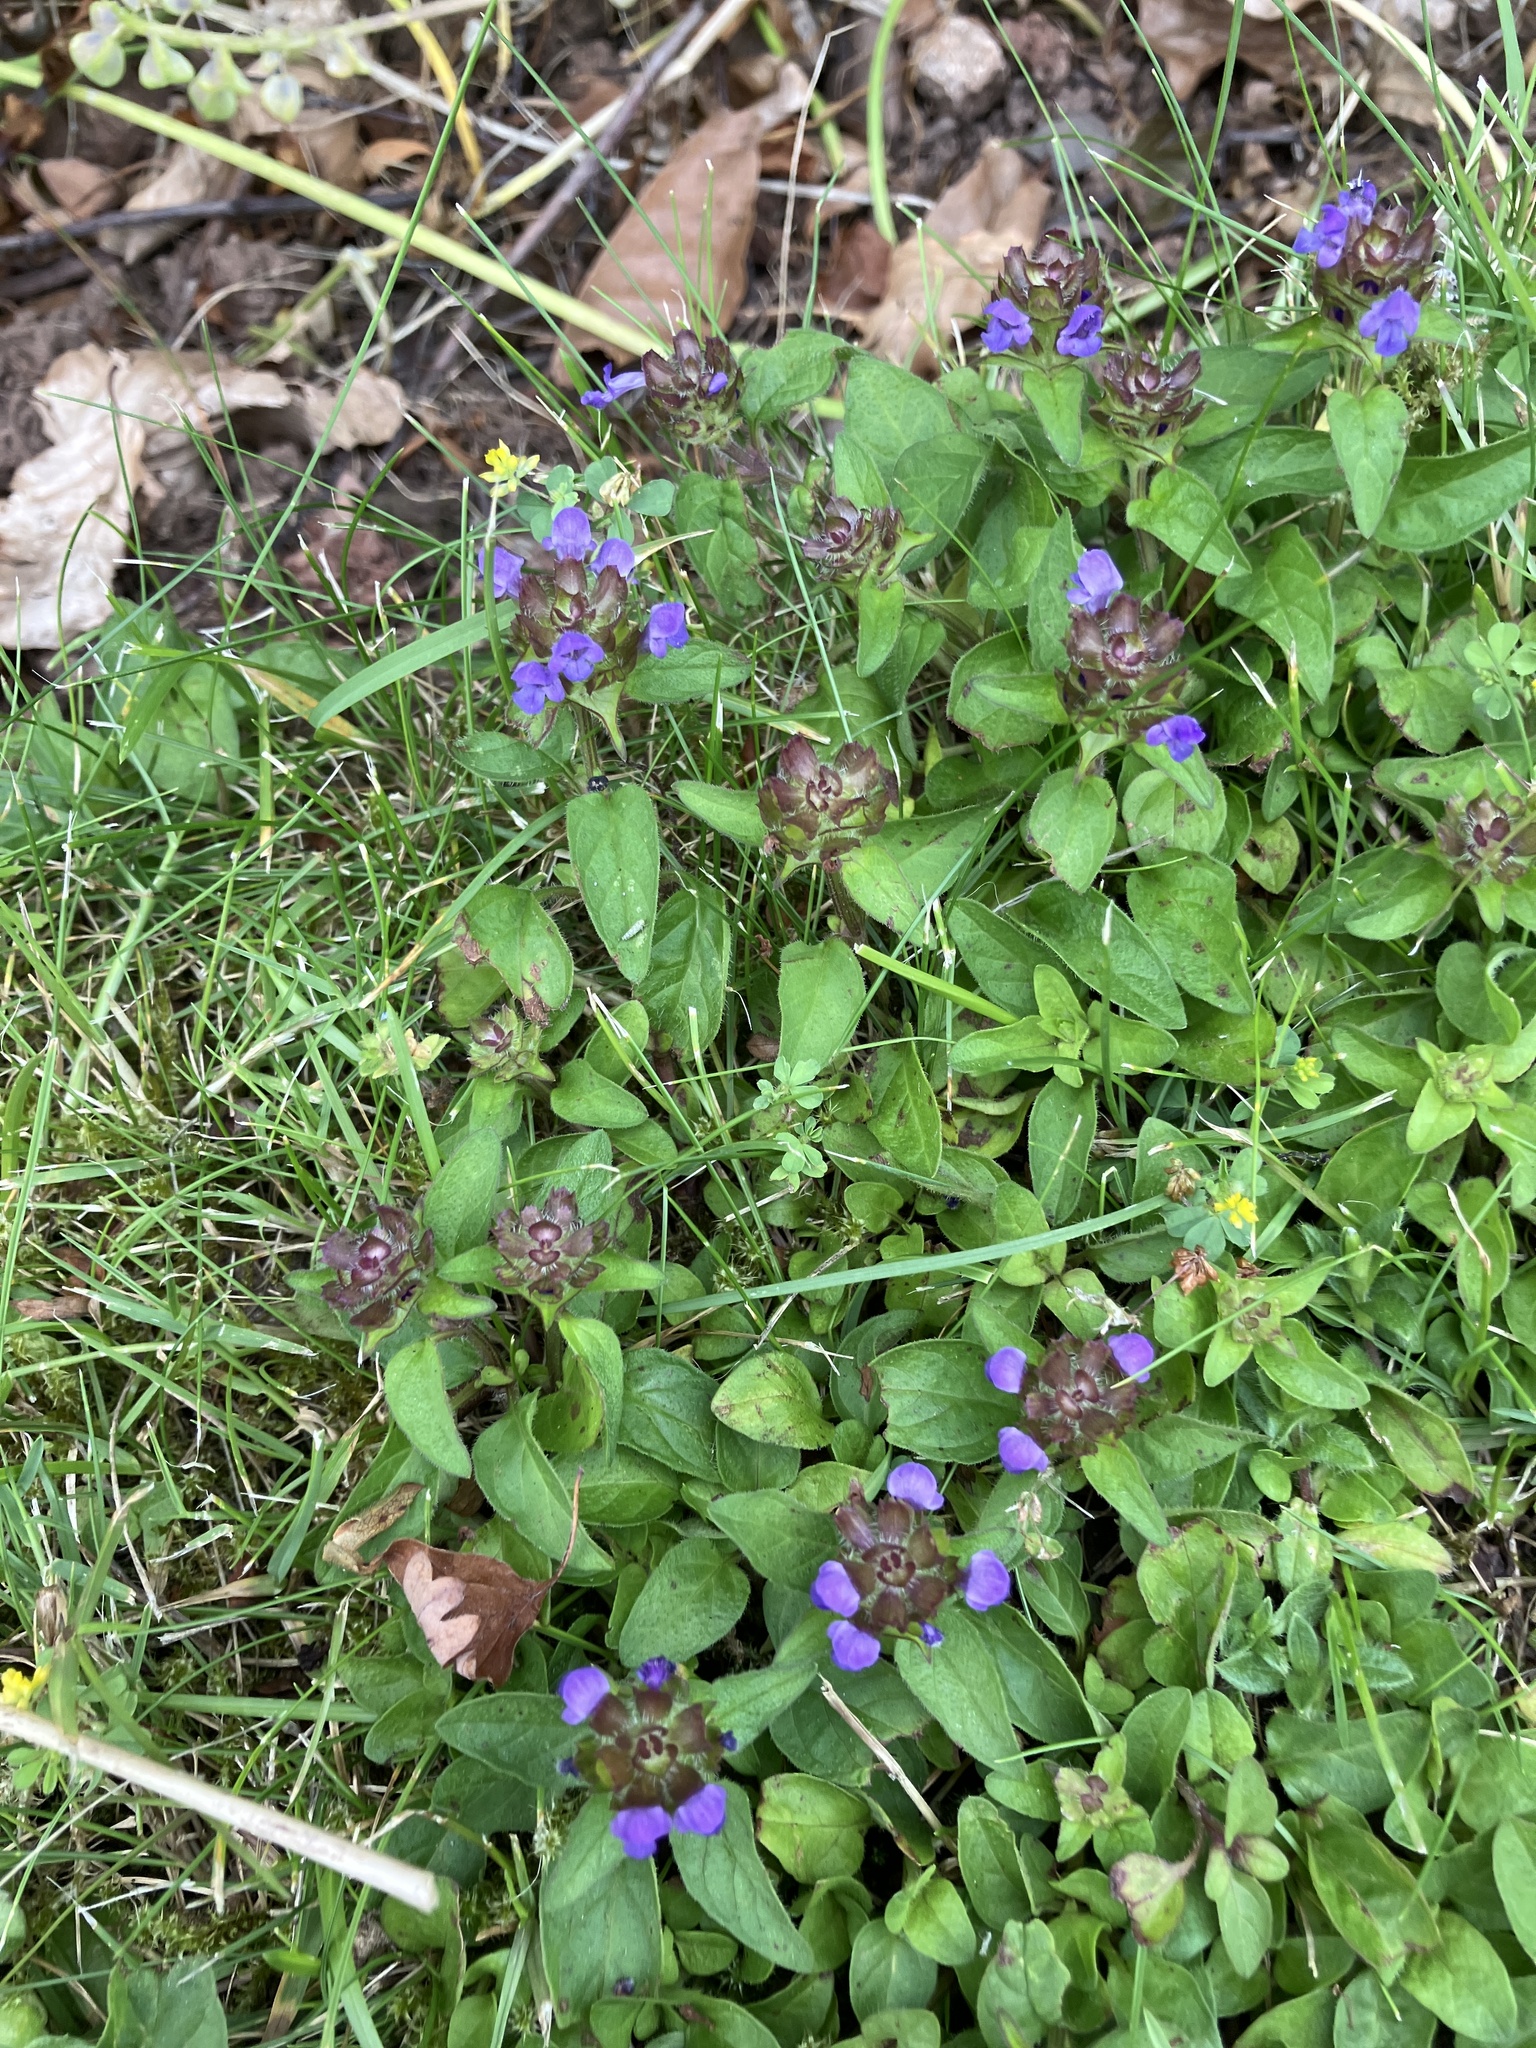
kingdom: Plantae
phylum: Tracheophyta
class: Magnoliopsida
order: Lamiales
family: Lamiaceae
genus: Prunella
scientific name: Prunella vulgaris
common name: Heal-all
